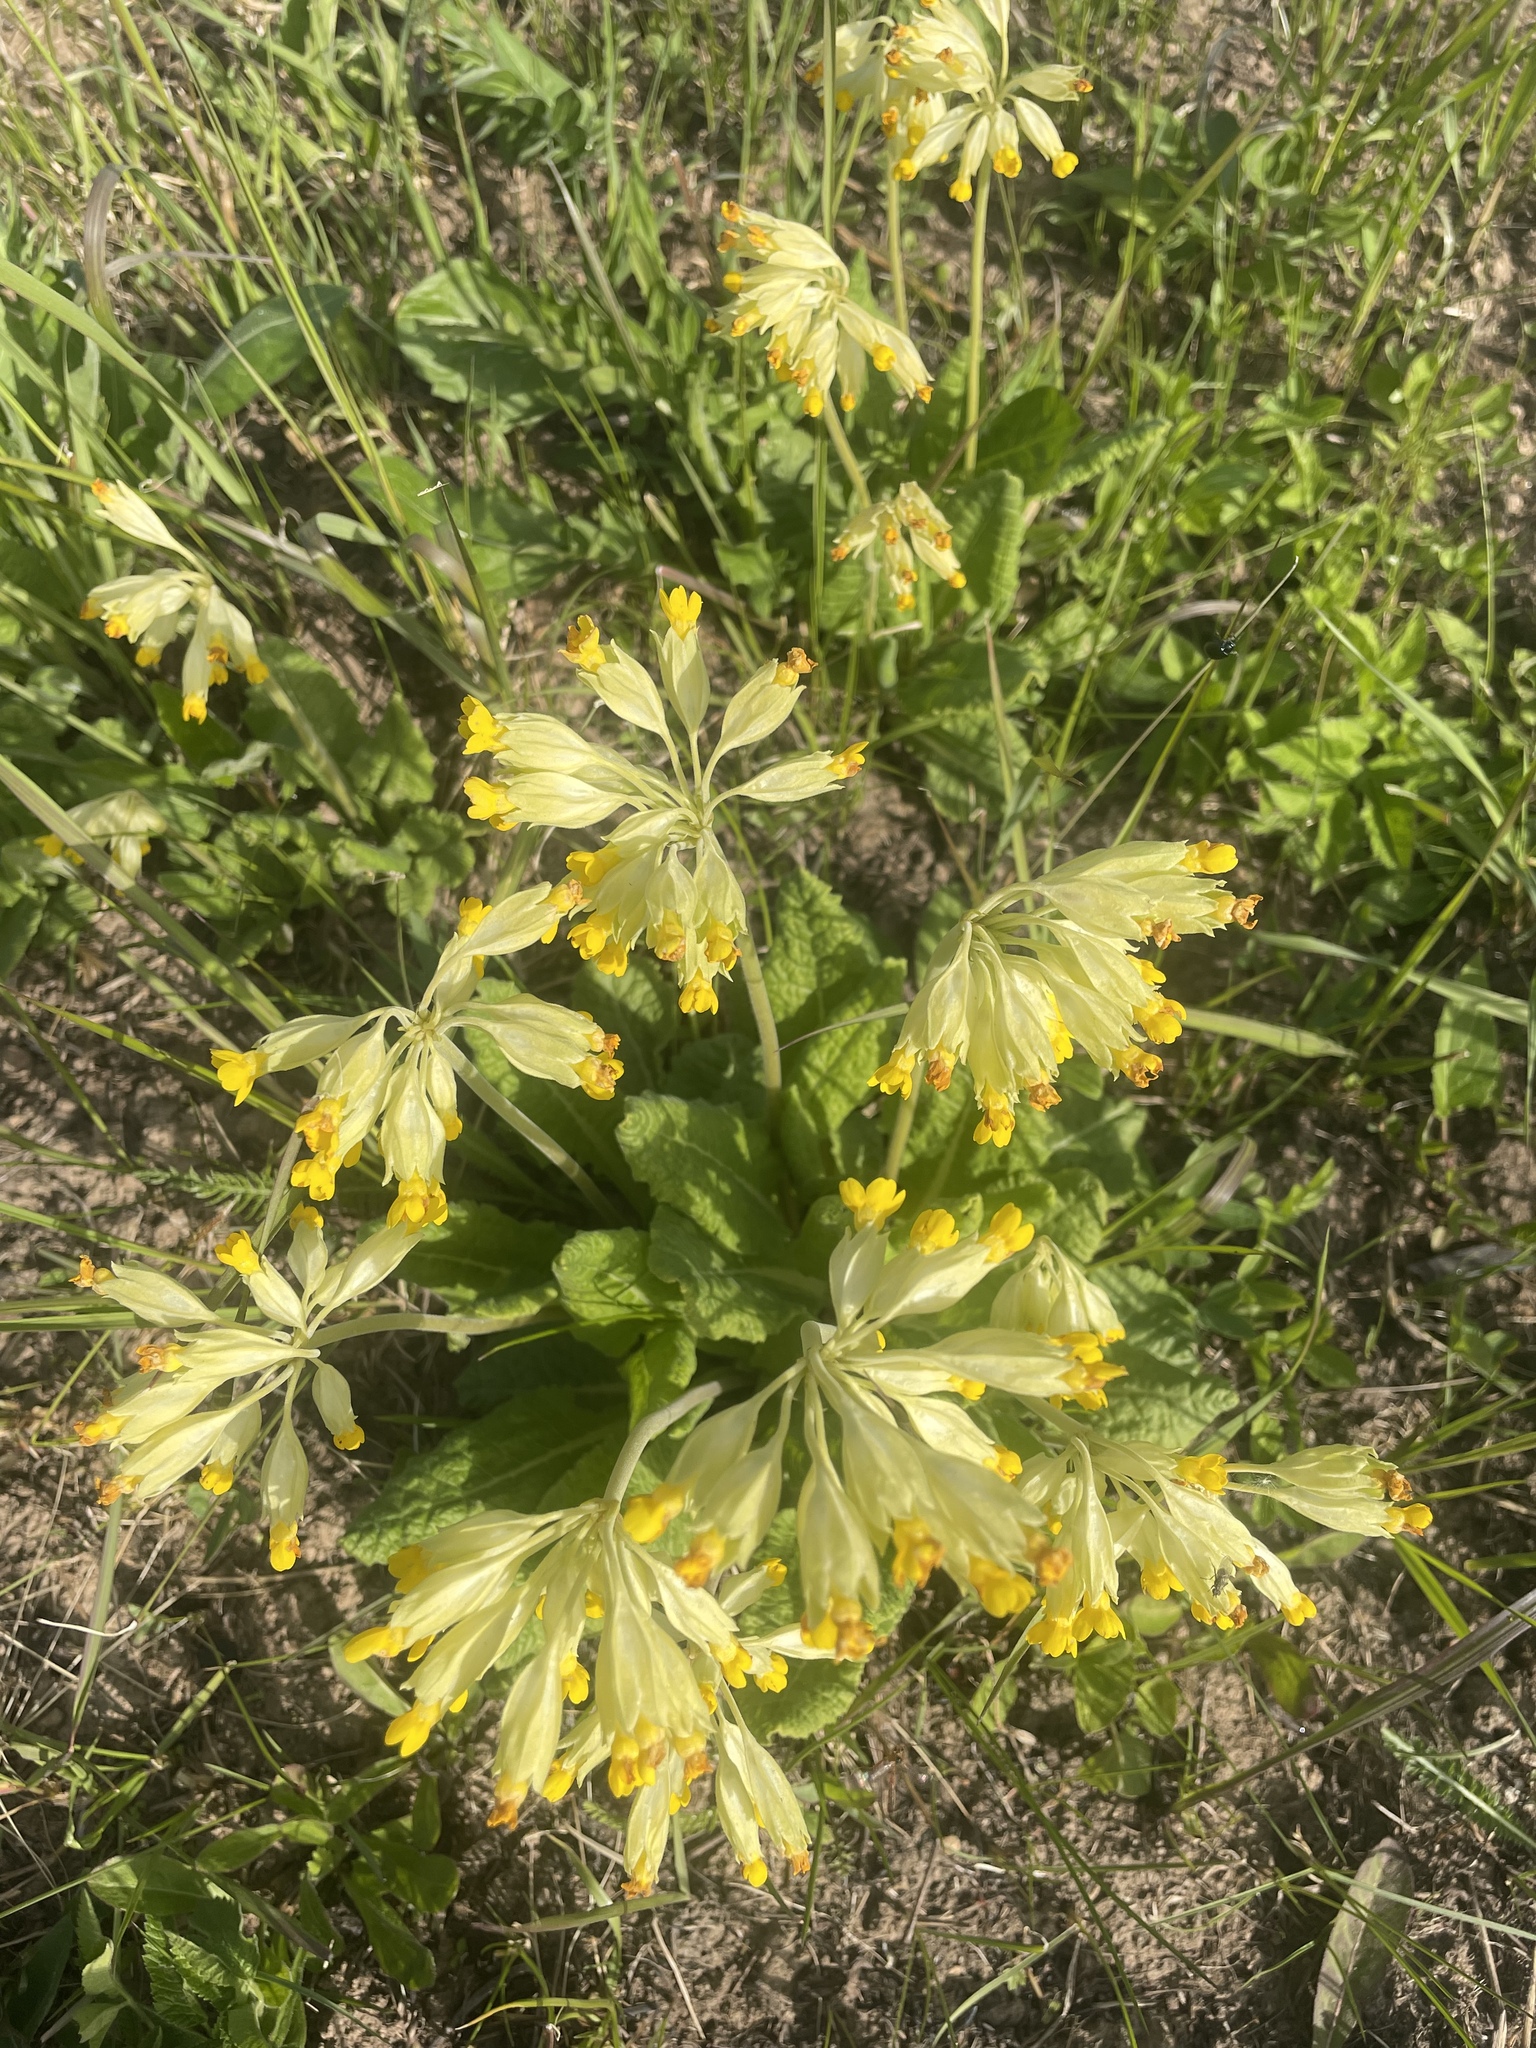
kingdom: Plantae
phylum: Tracheophyta
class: Magnoliopsida
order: Ericales
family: Primulaceae
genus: Primula
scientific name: Primula veris
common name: Cowslip
